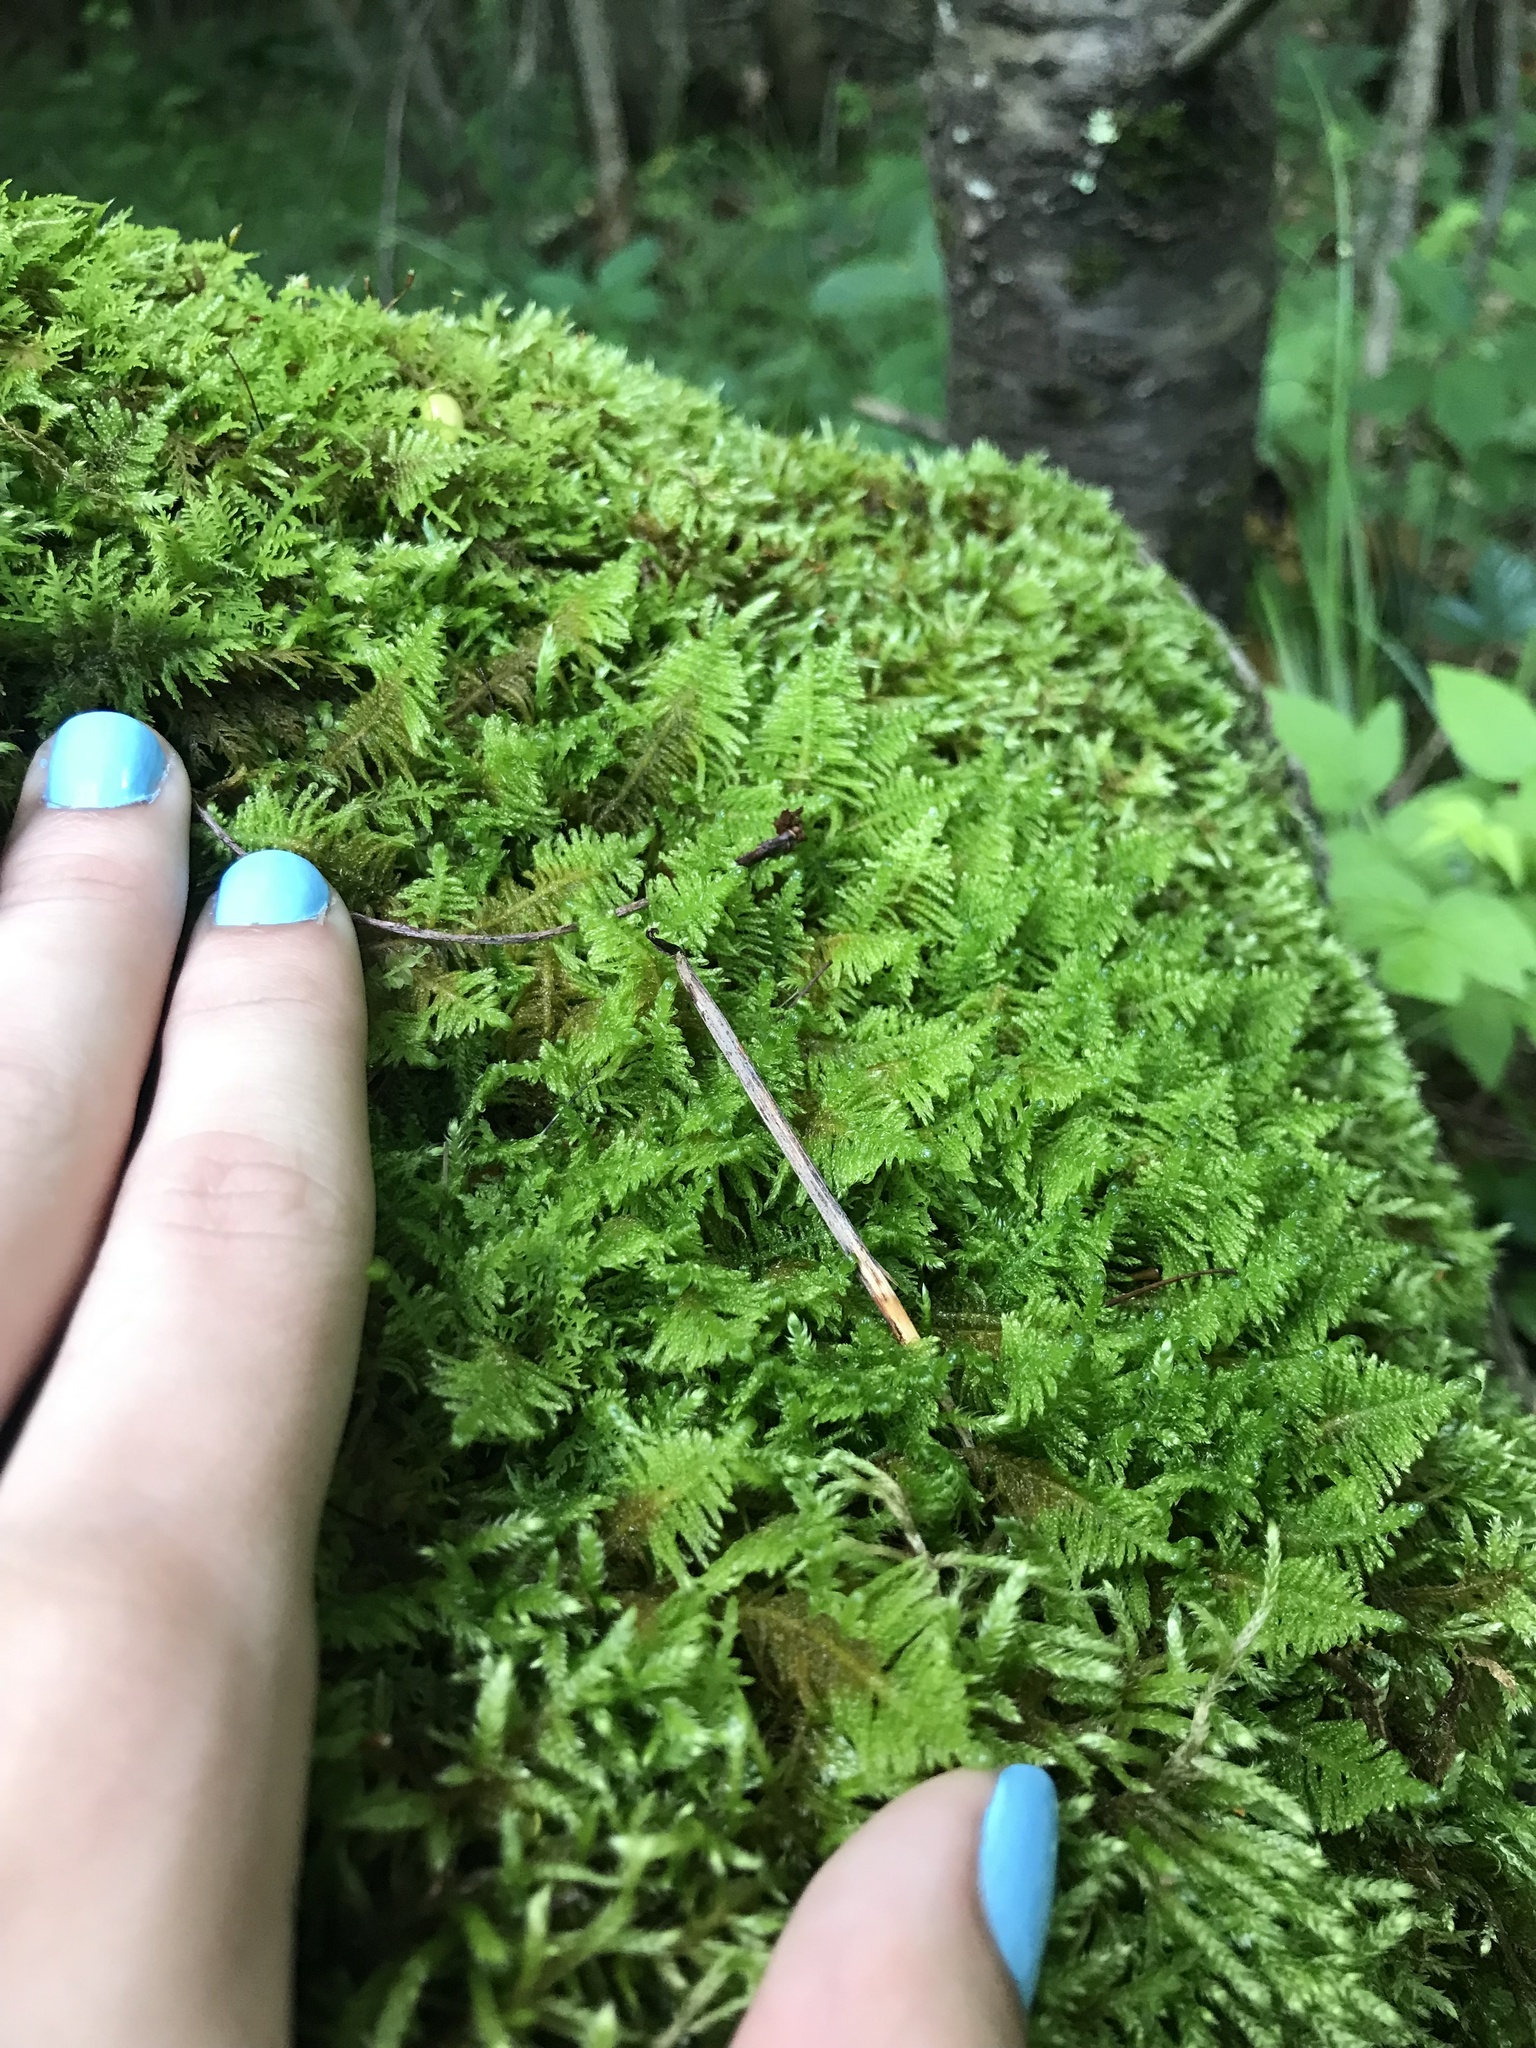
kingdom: Plantae
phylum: Bryophyta
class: Bryopsida
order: Hypnales
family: Pylaisiaceae
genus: Ptilium
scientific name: Ptilium crista-castrensis
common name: Knight's plume moss
